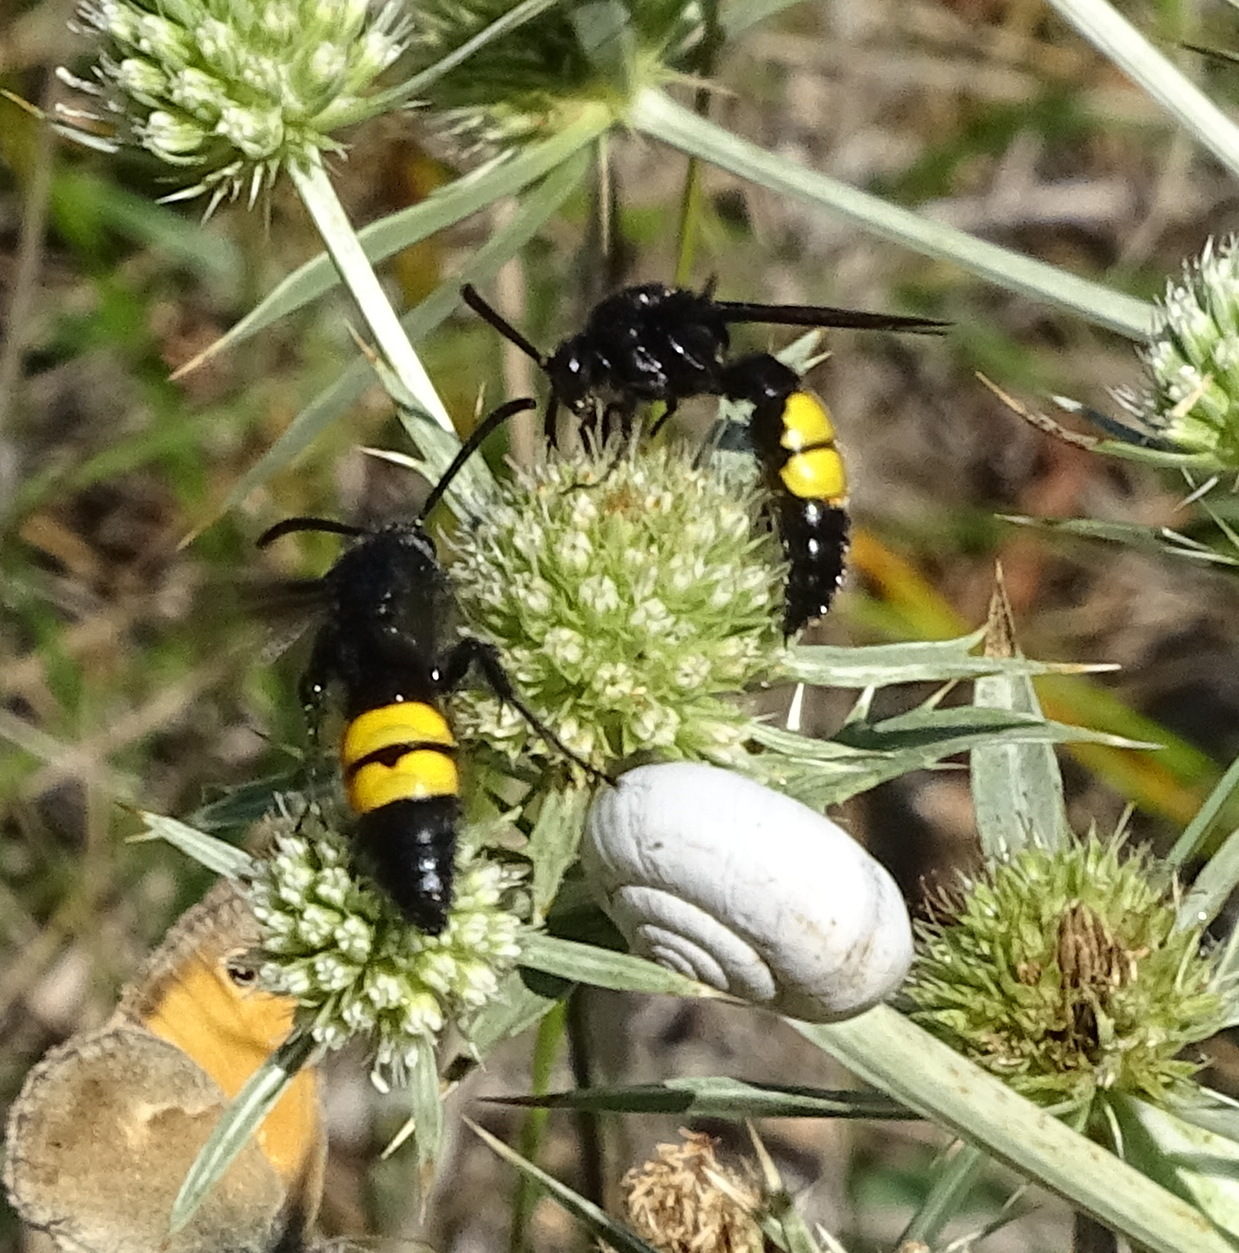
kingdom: Animalia
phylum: Arthropoda
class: Insecta
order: Hymenoptera
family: Scoliidae
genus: Scolia
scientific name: Scolia hirta
